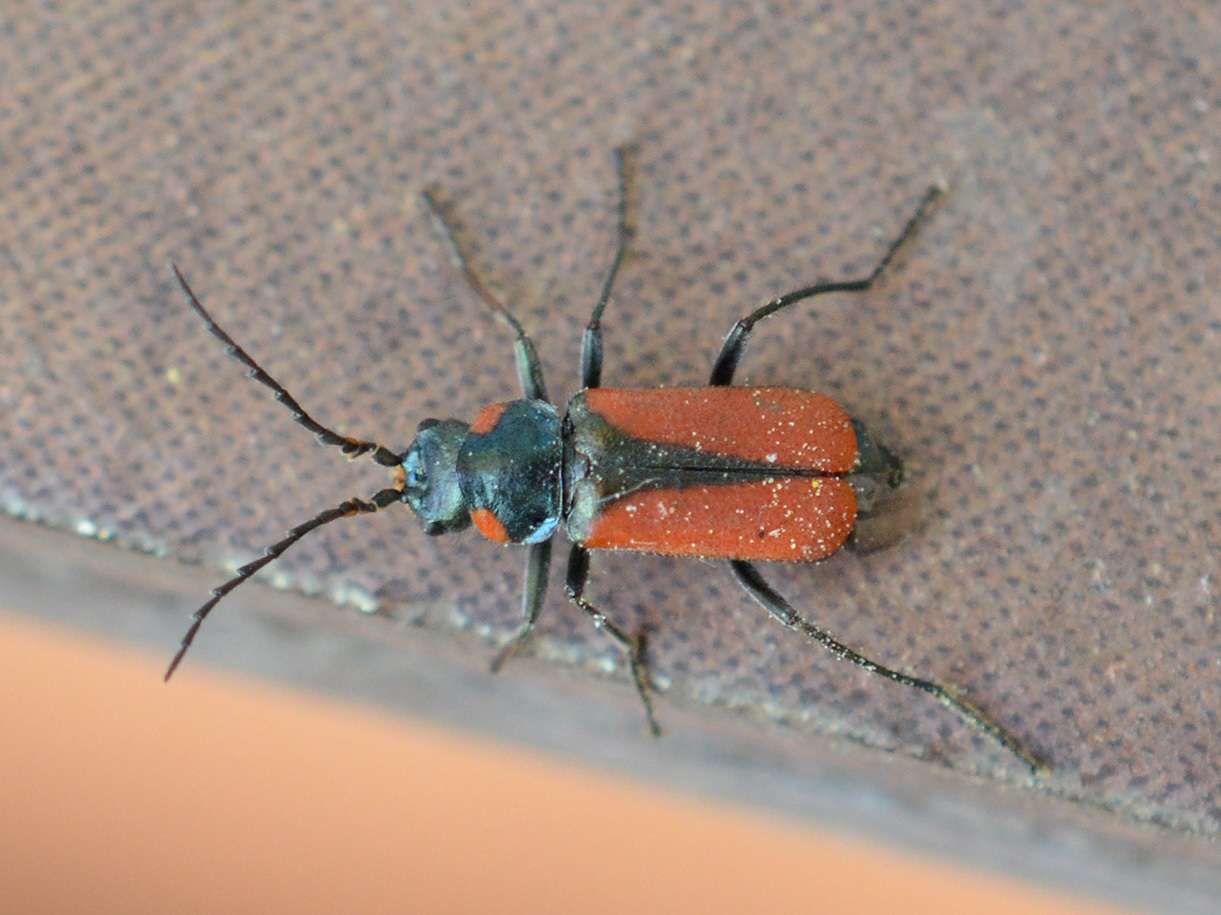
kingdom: Animalia
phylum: Arthropoda
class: Insecta
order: Coleoptera
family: Melyridae
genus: Malachius
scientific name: Malachius
